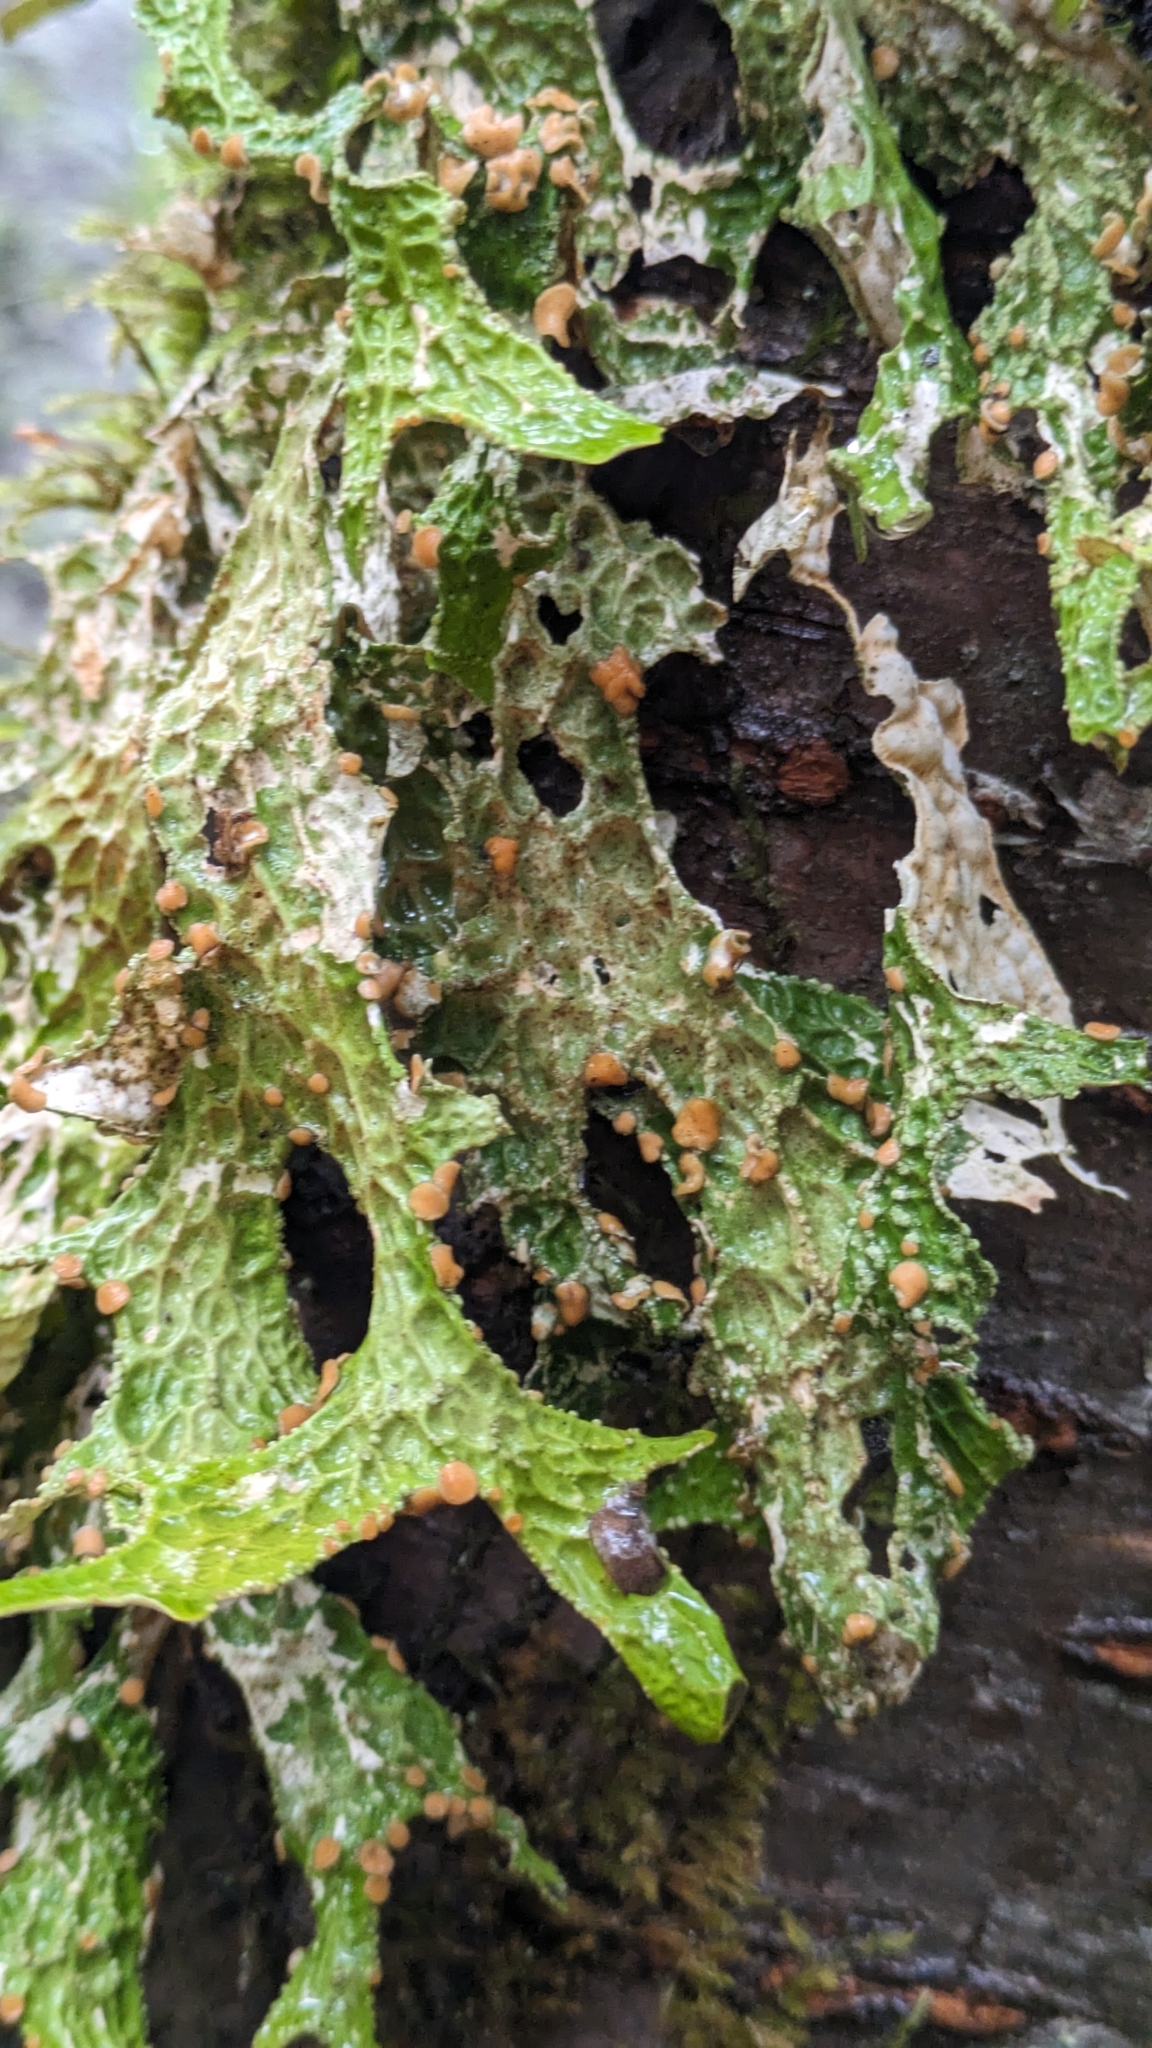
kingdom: Fungi
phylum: Ascomycota
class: Lecanoromycetes
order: Peltigerales
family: Lobariaceae
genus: Lobaria
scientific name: Lobaria pulmonaria
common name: Lungwort
